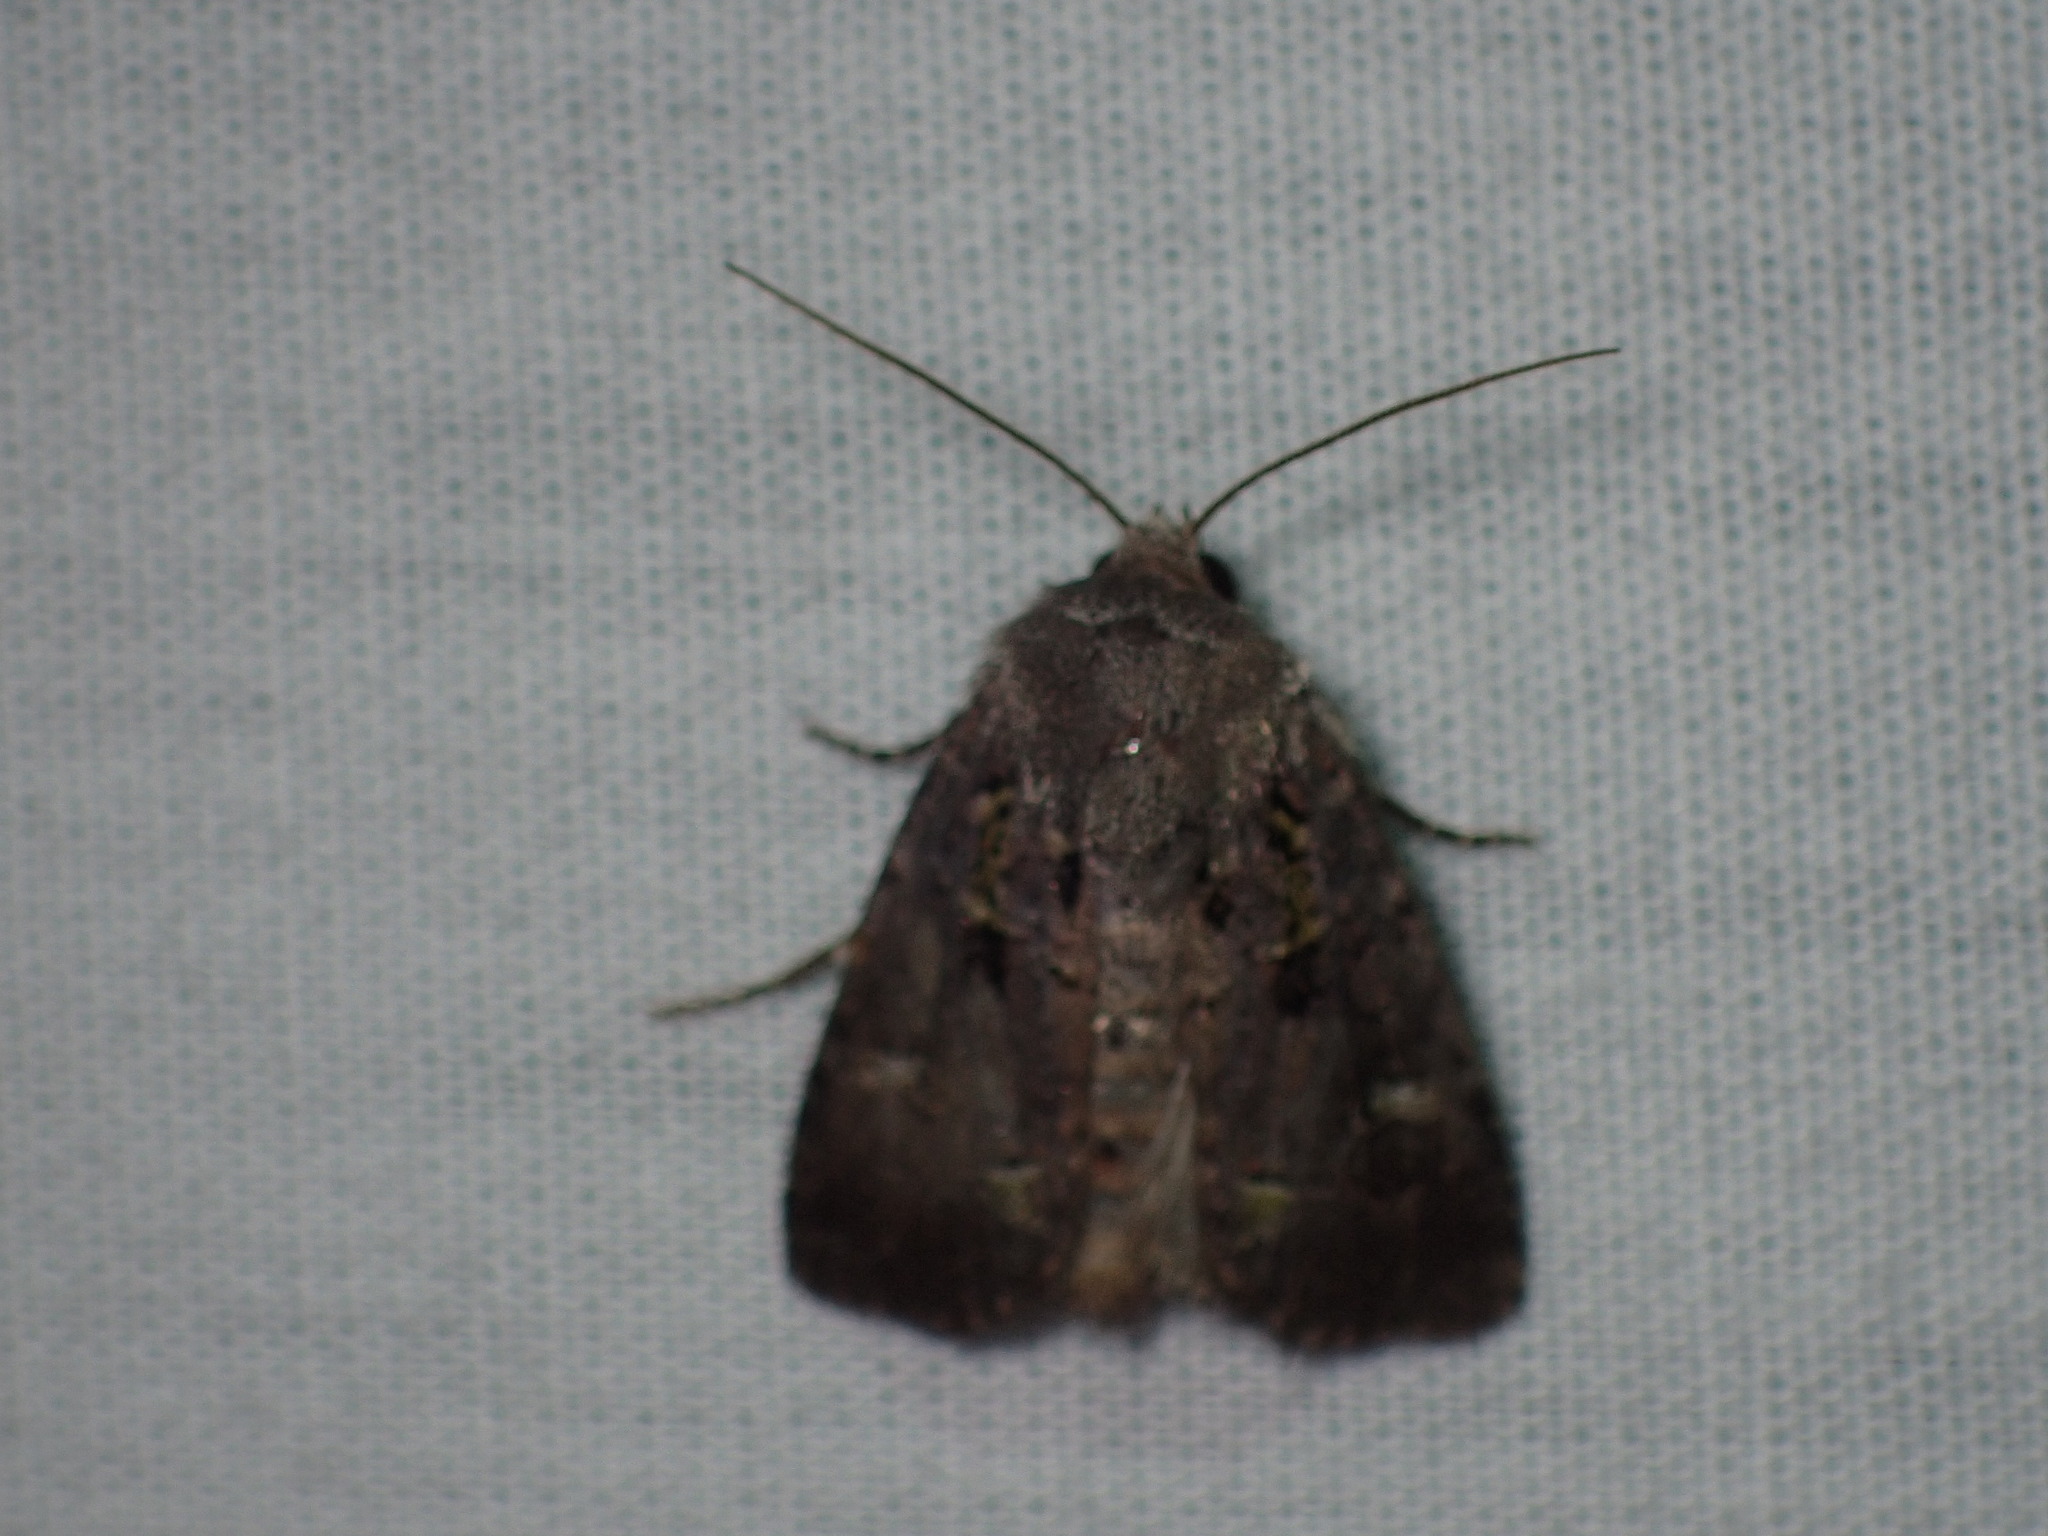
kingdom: Animalia
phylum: Arthropoda
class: Insecta
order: Lepidoptera
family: Noctuidae
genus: Lacinipolia
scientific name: Lacinipolia renigera
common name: Kidney-spotted minor
